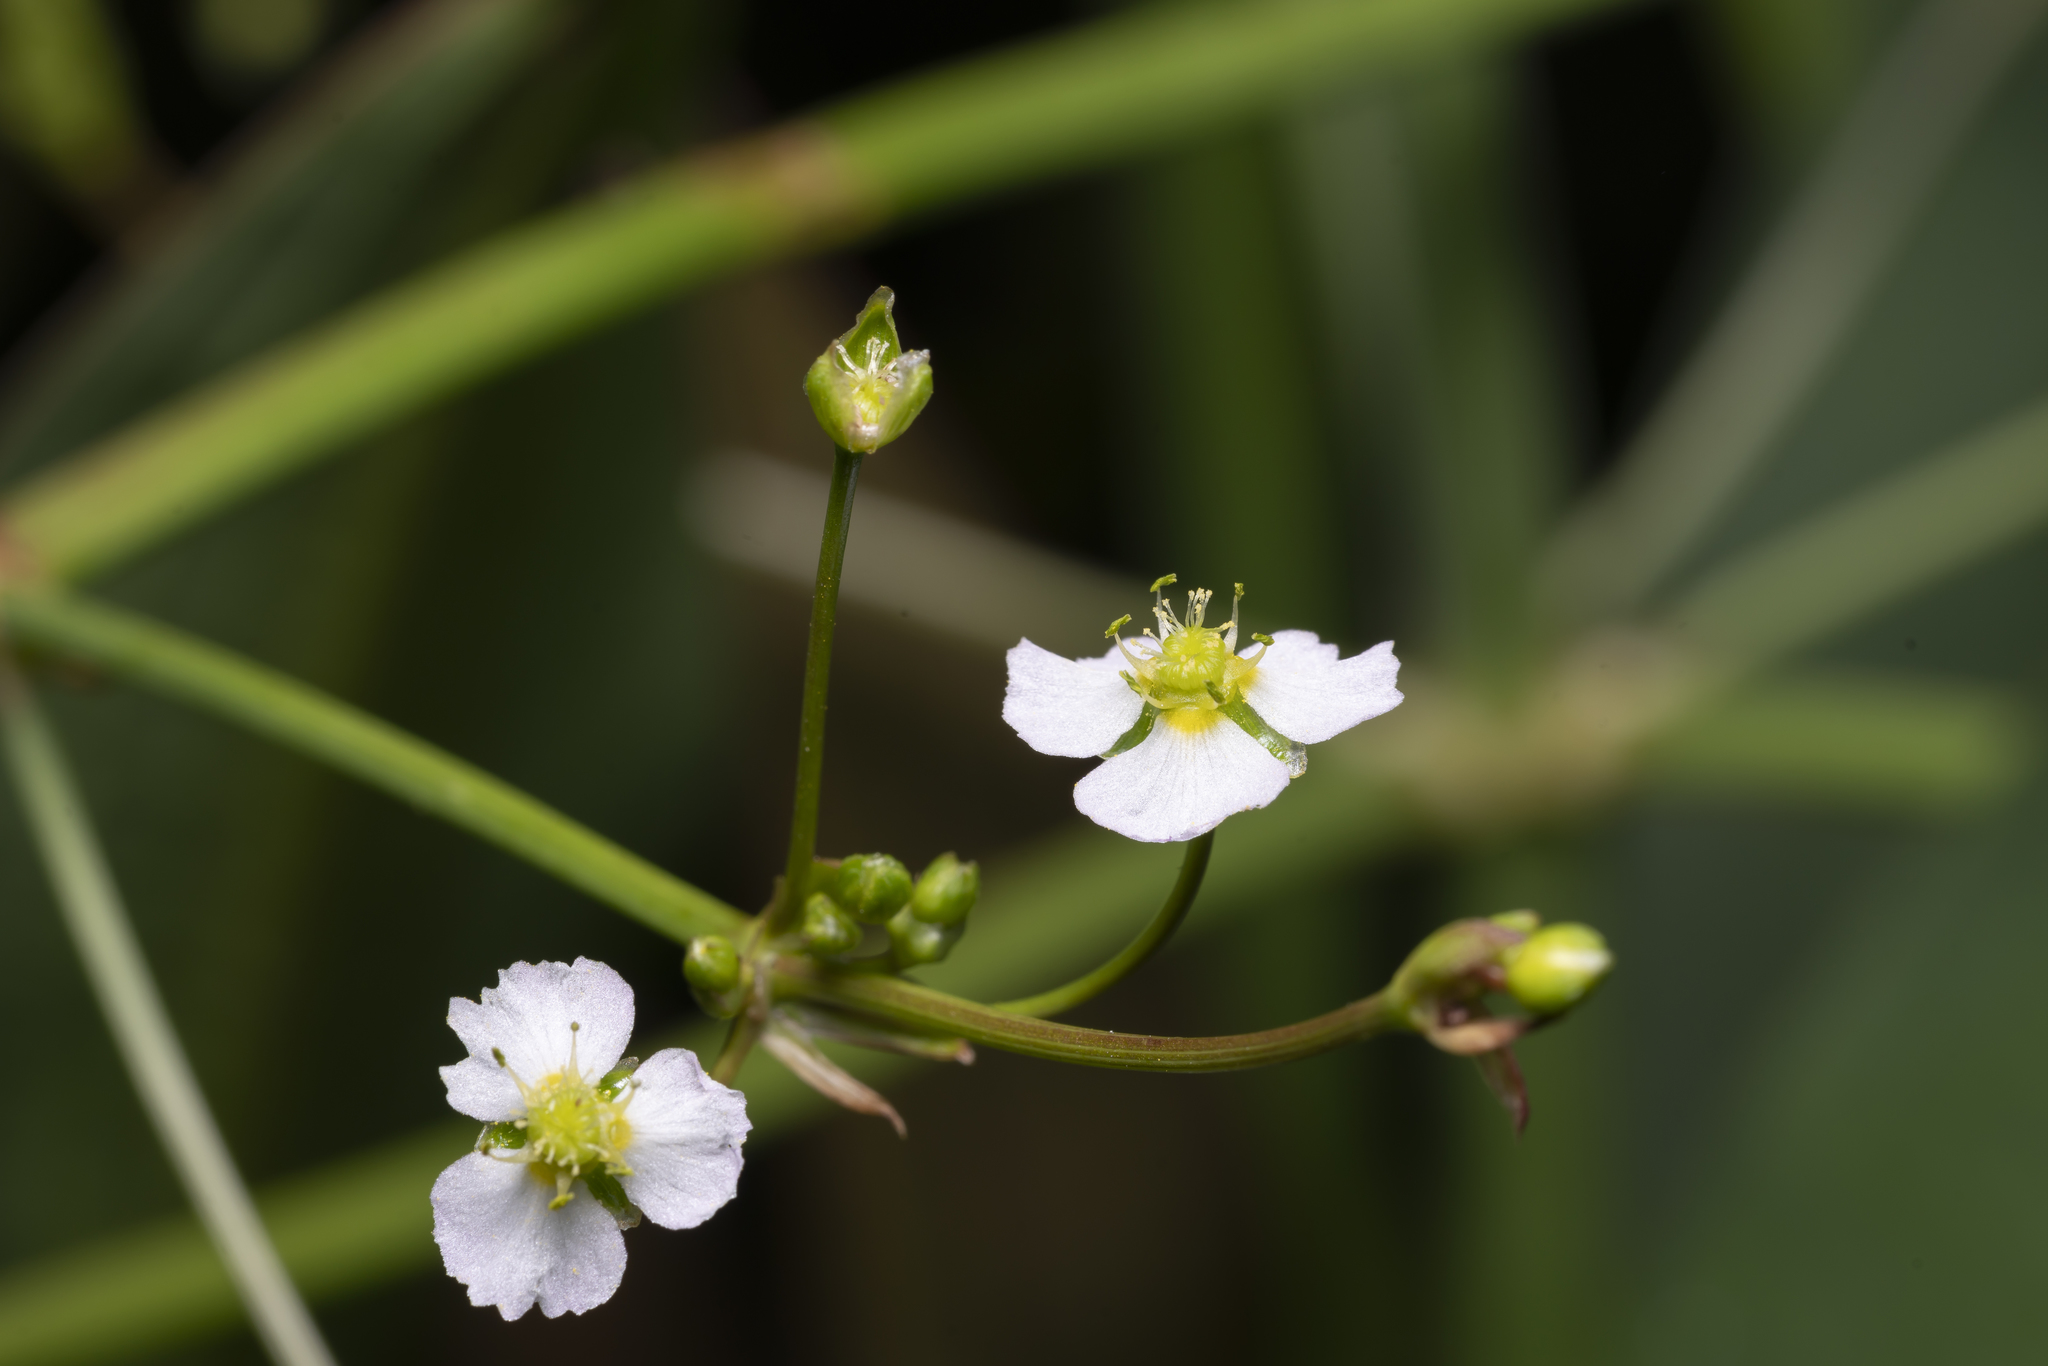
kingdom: Plantae
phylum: Tracheophyta
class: Liliopsida
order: Alismatales
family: Alismataceae
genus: Alisma
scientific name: Alisma plantago-aquatica
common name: Water-plantain
